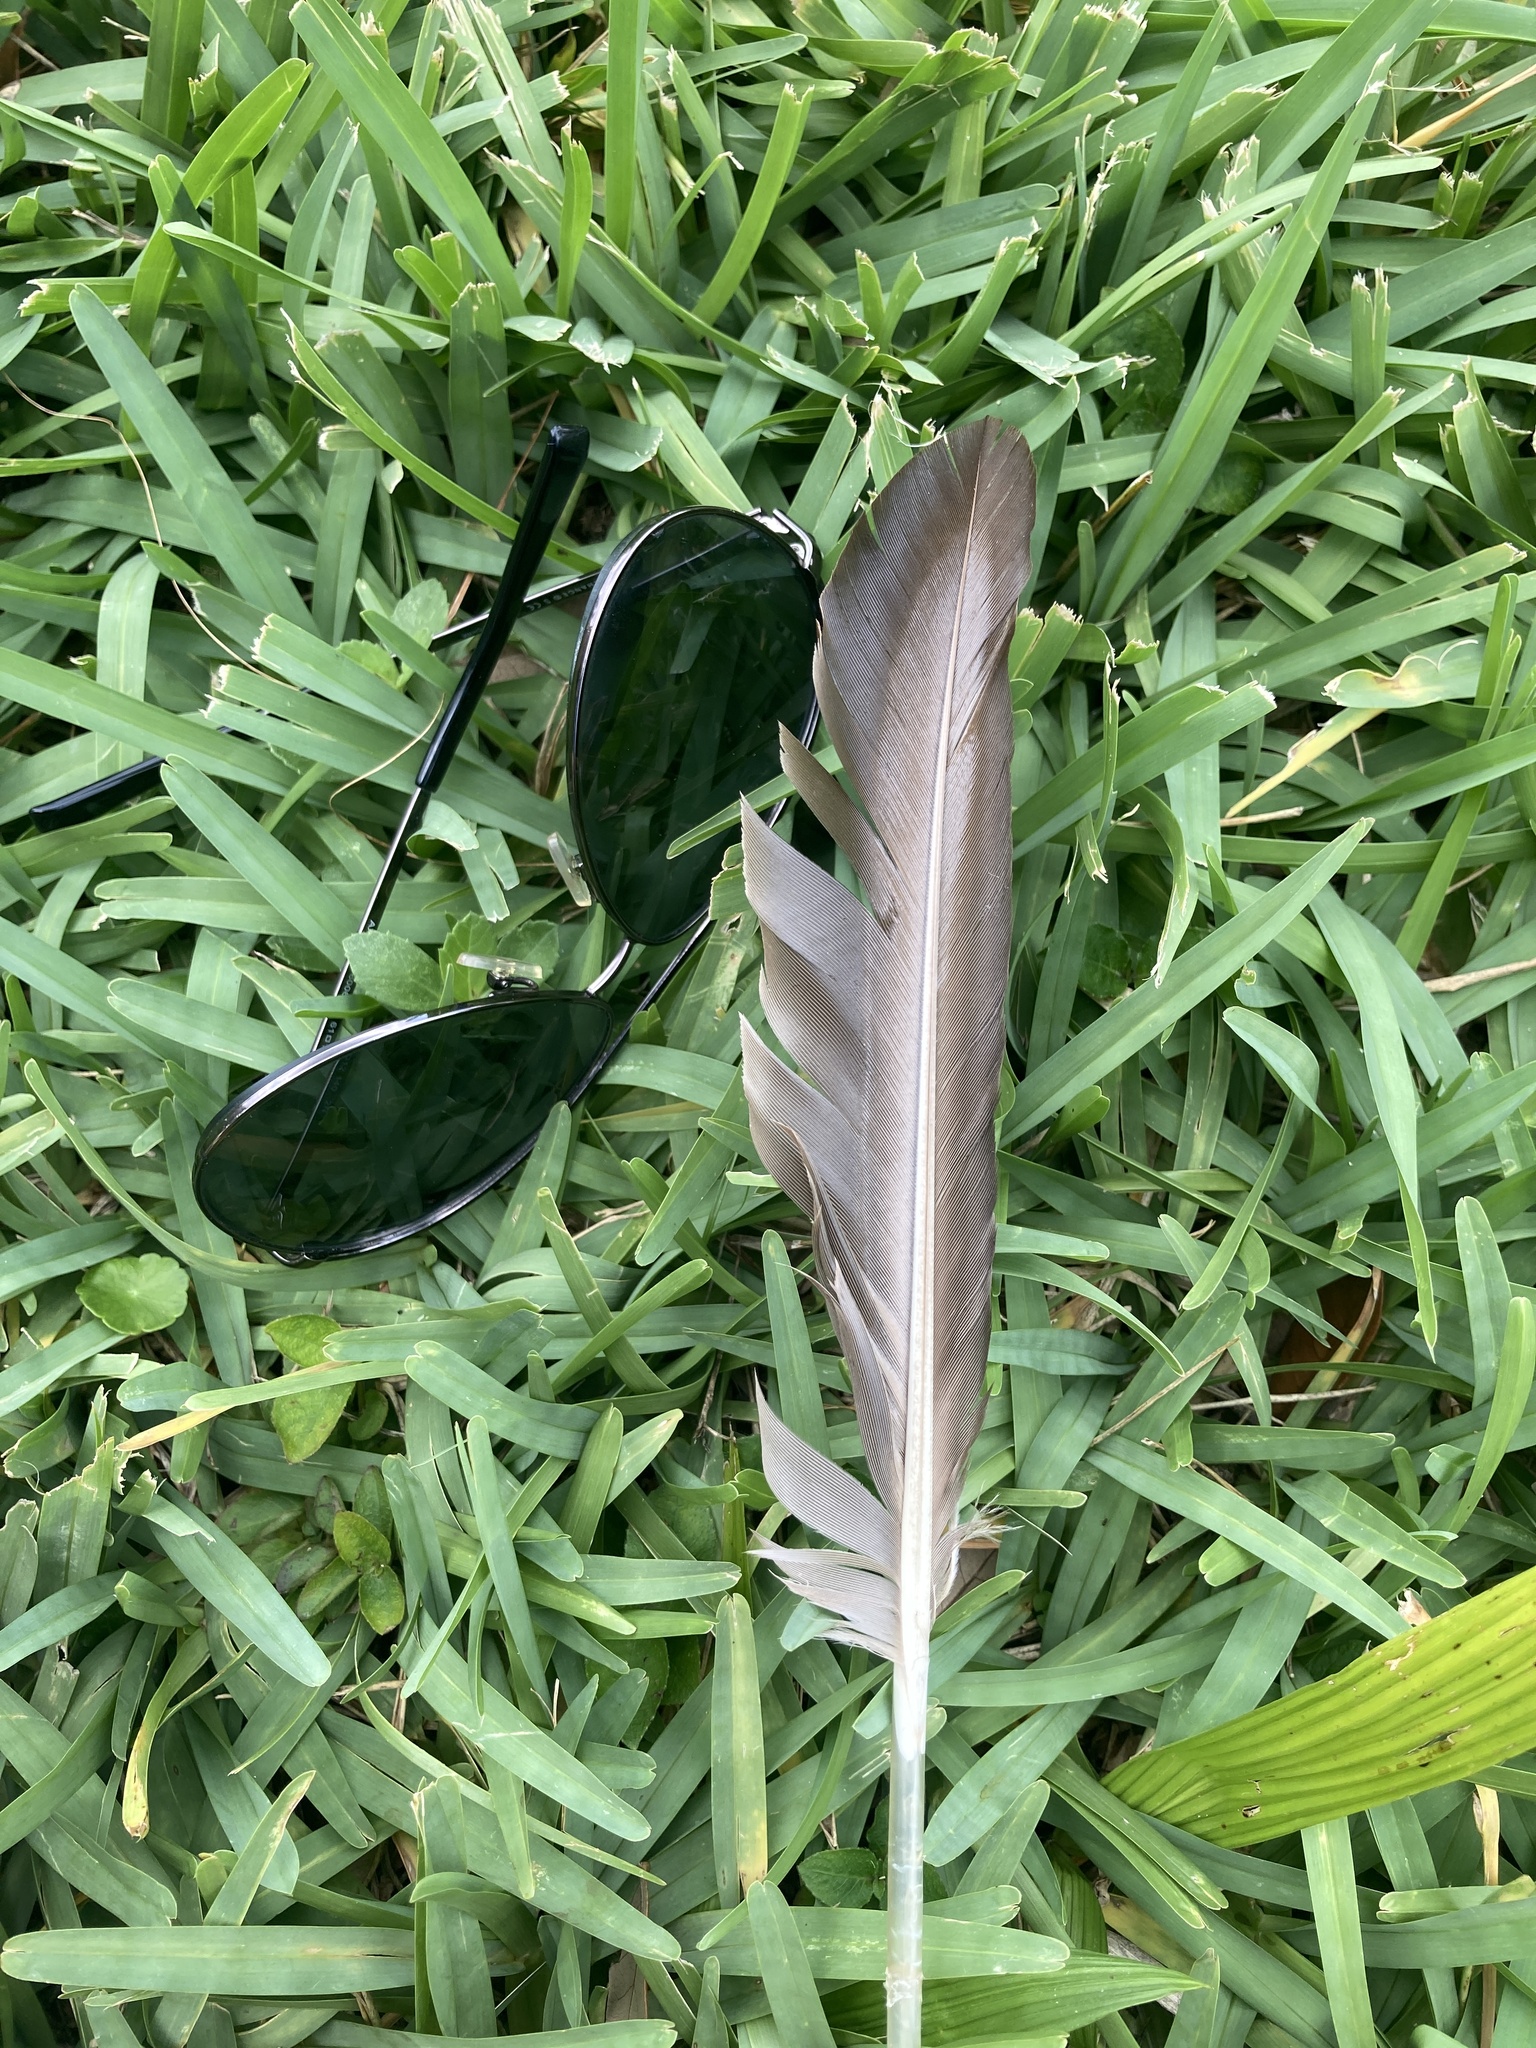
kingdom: Animalia
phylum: Chordata
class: Aves
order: Anseriformes
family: Anatidae
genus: Cairina
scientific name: Cairina moschata
